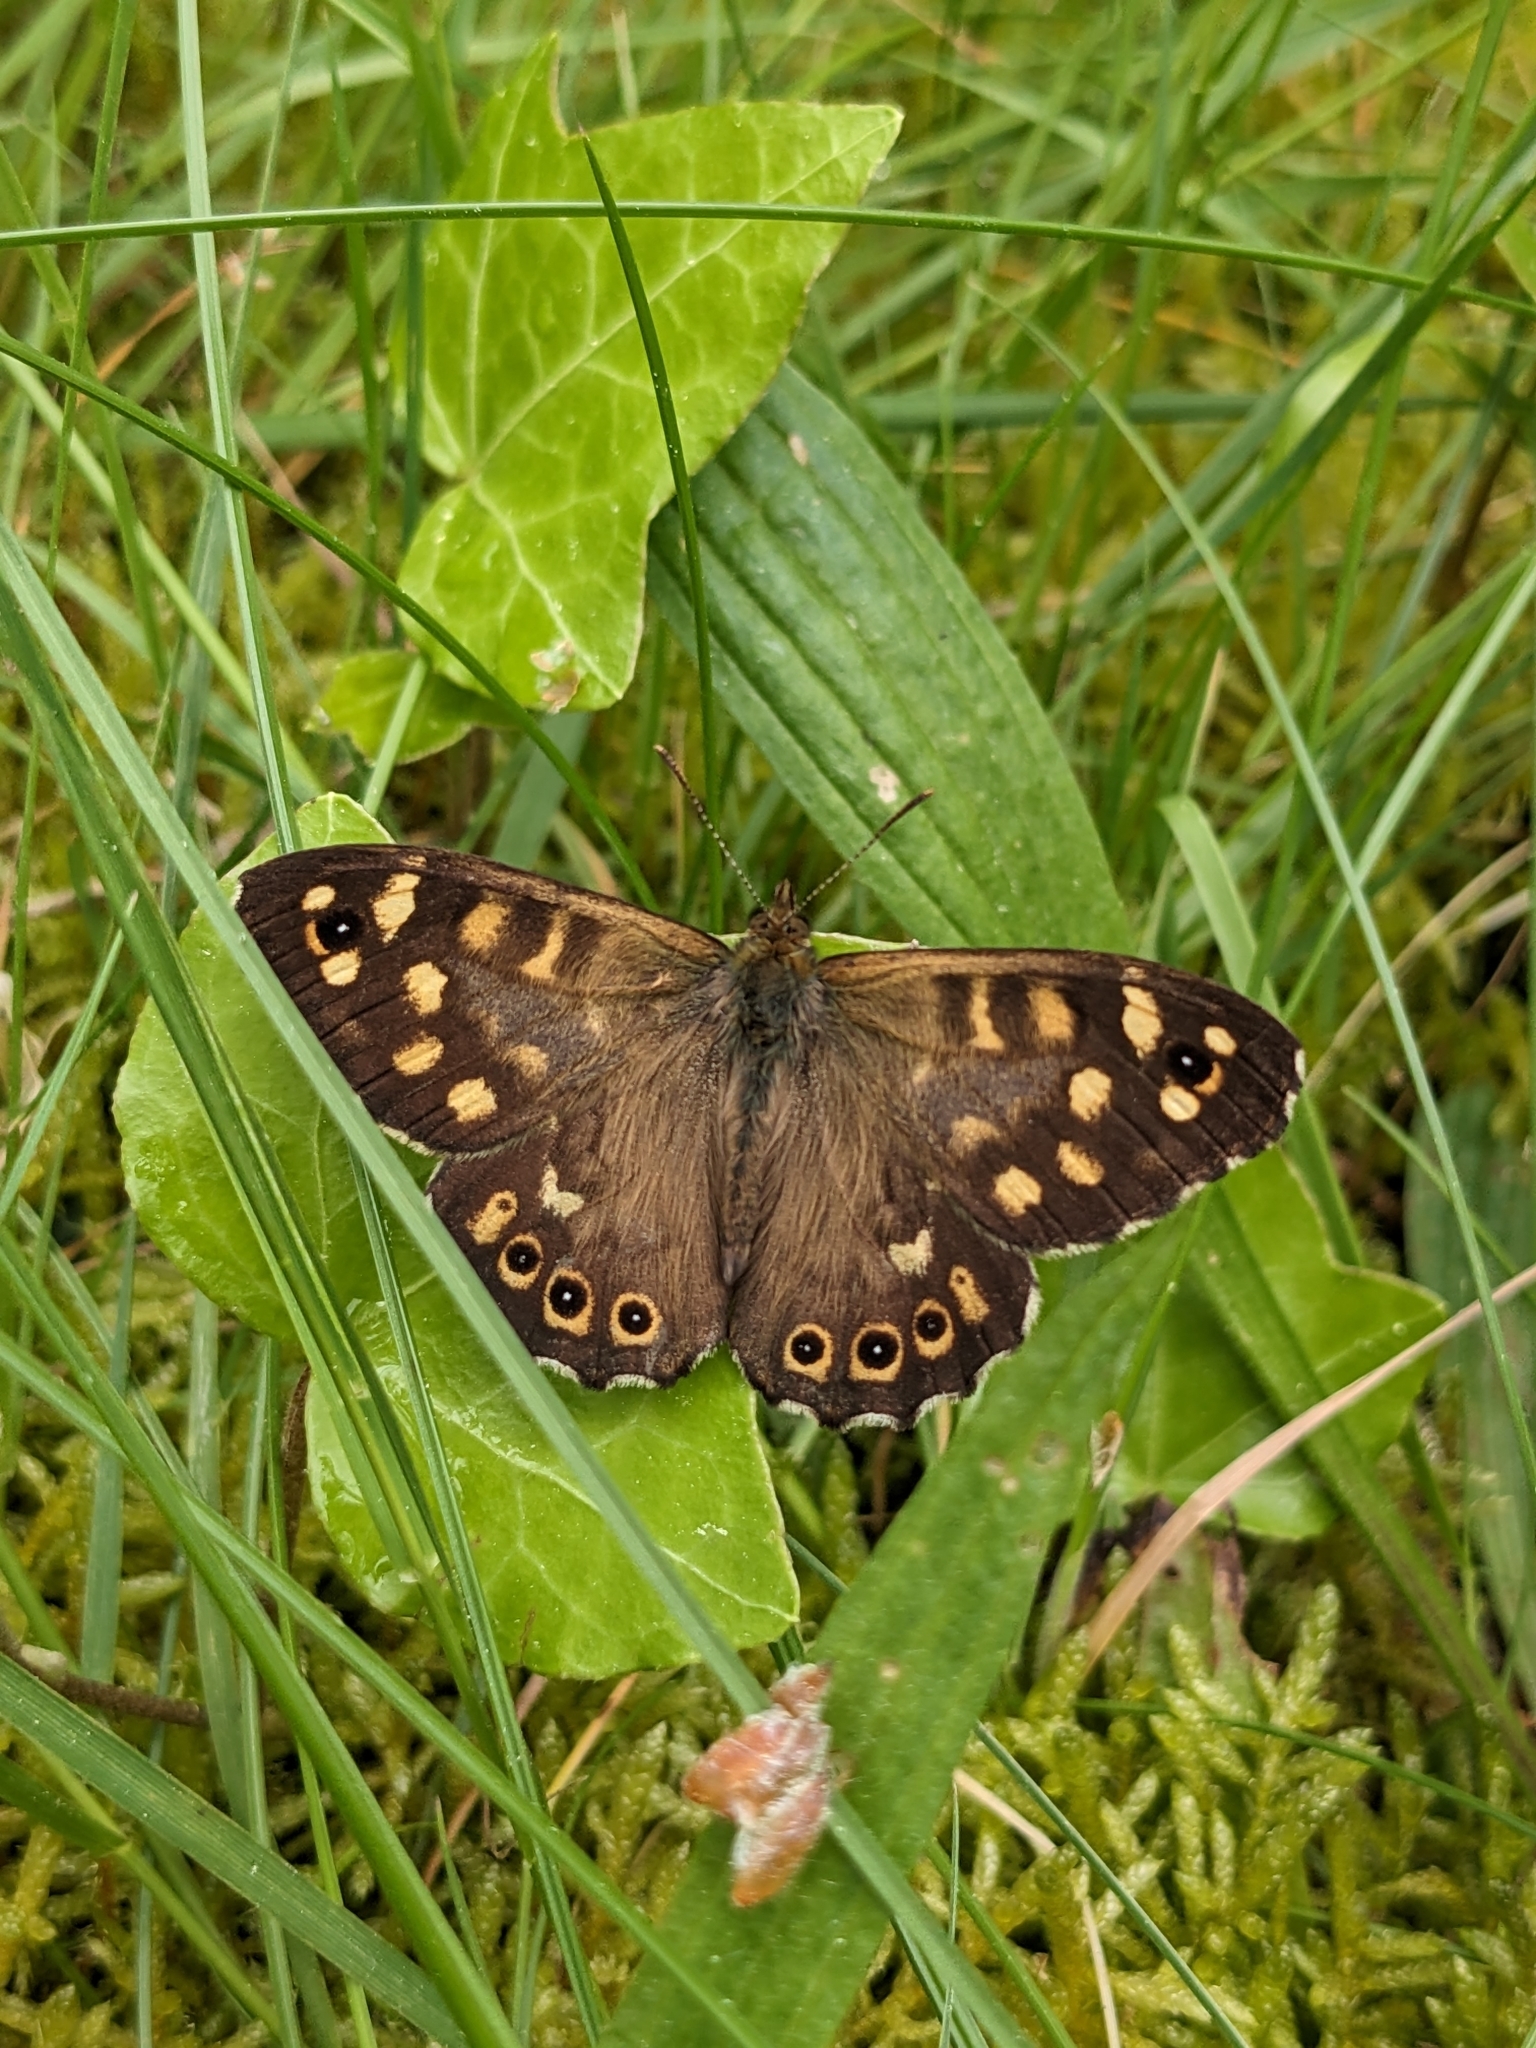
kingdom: Animalia
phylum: Arthropoda
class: Insecta
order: Lepidoptera
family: Nymphalidae
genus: Pararge
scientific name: Pararge aegeria
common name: Speckled wood
